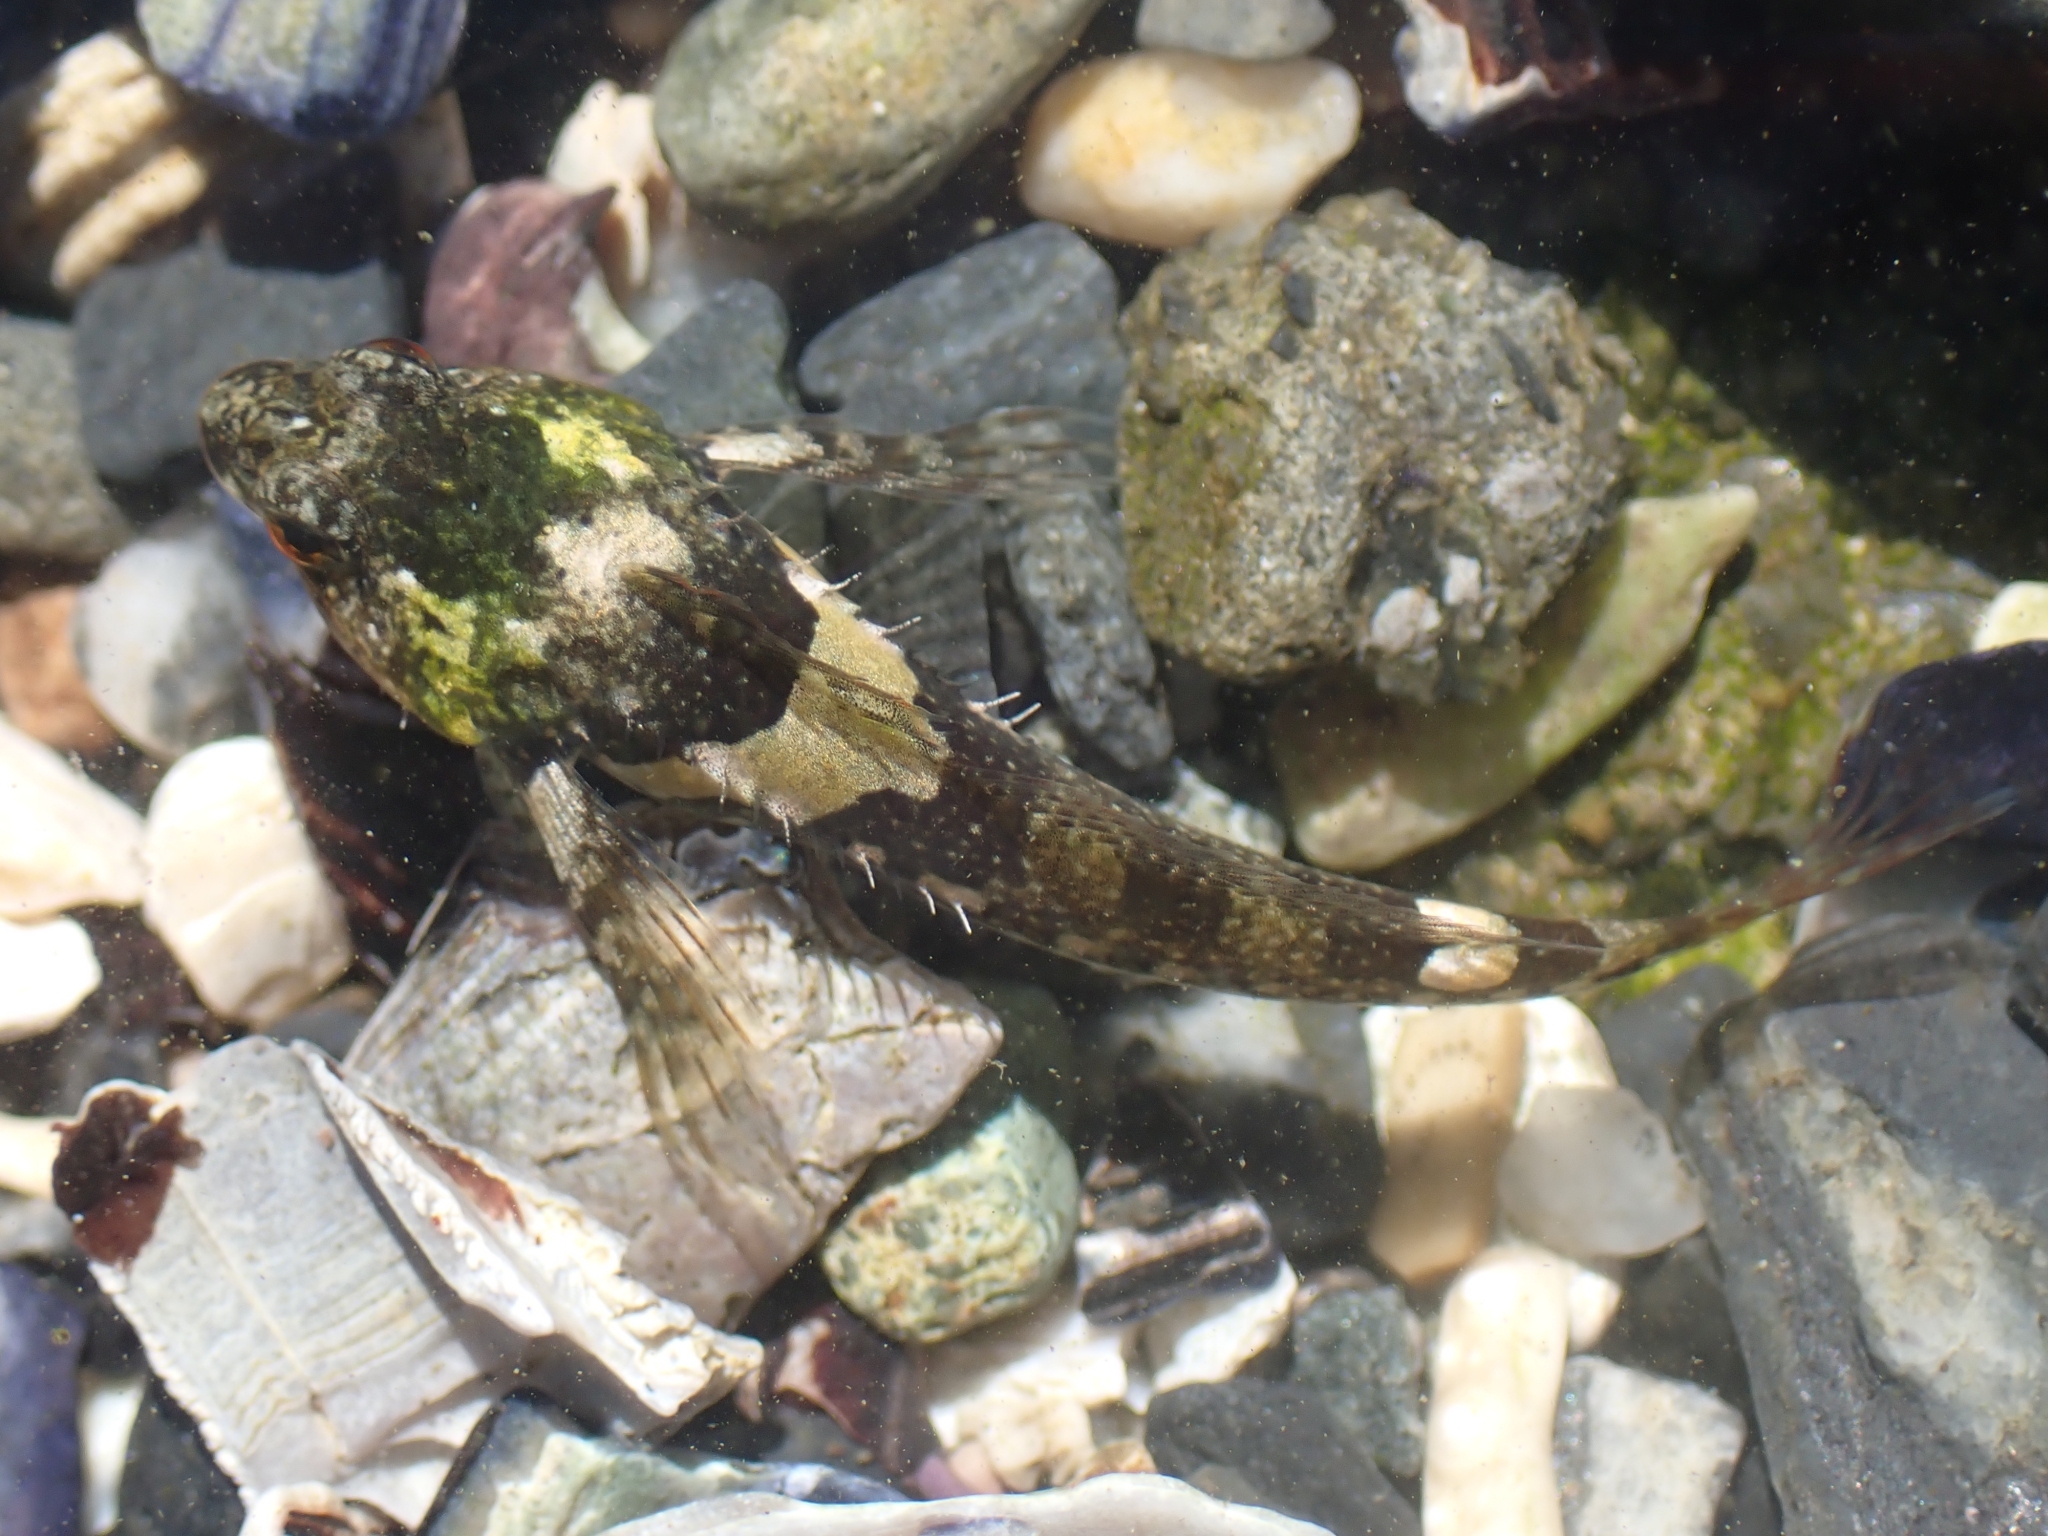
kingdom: Animalia
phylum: Chordata
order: Scorpaeniformes
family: Cottidae
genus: Oligocottus
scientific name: Oligocottus maculosus
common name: Tidepool sculpin
